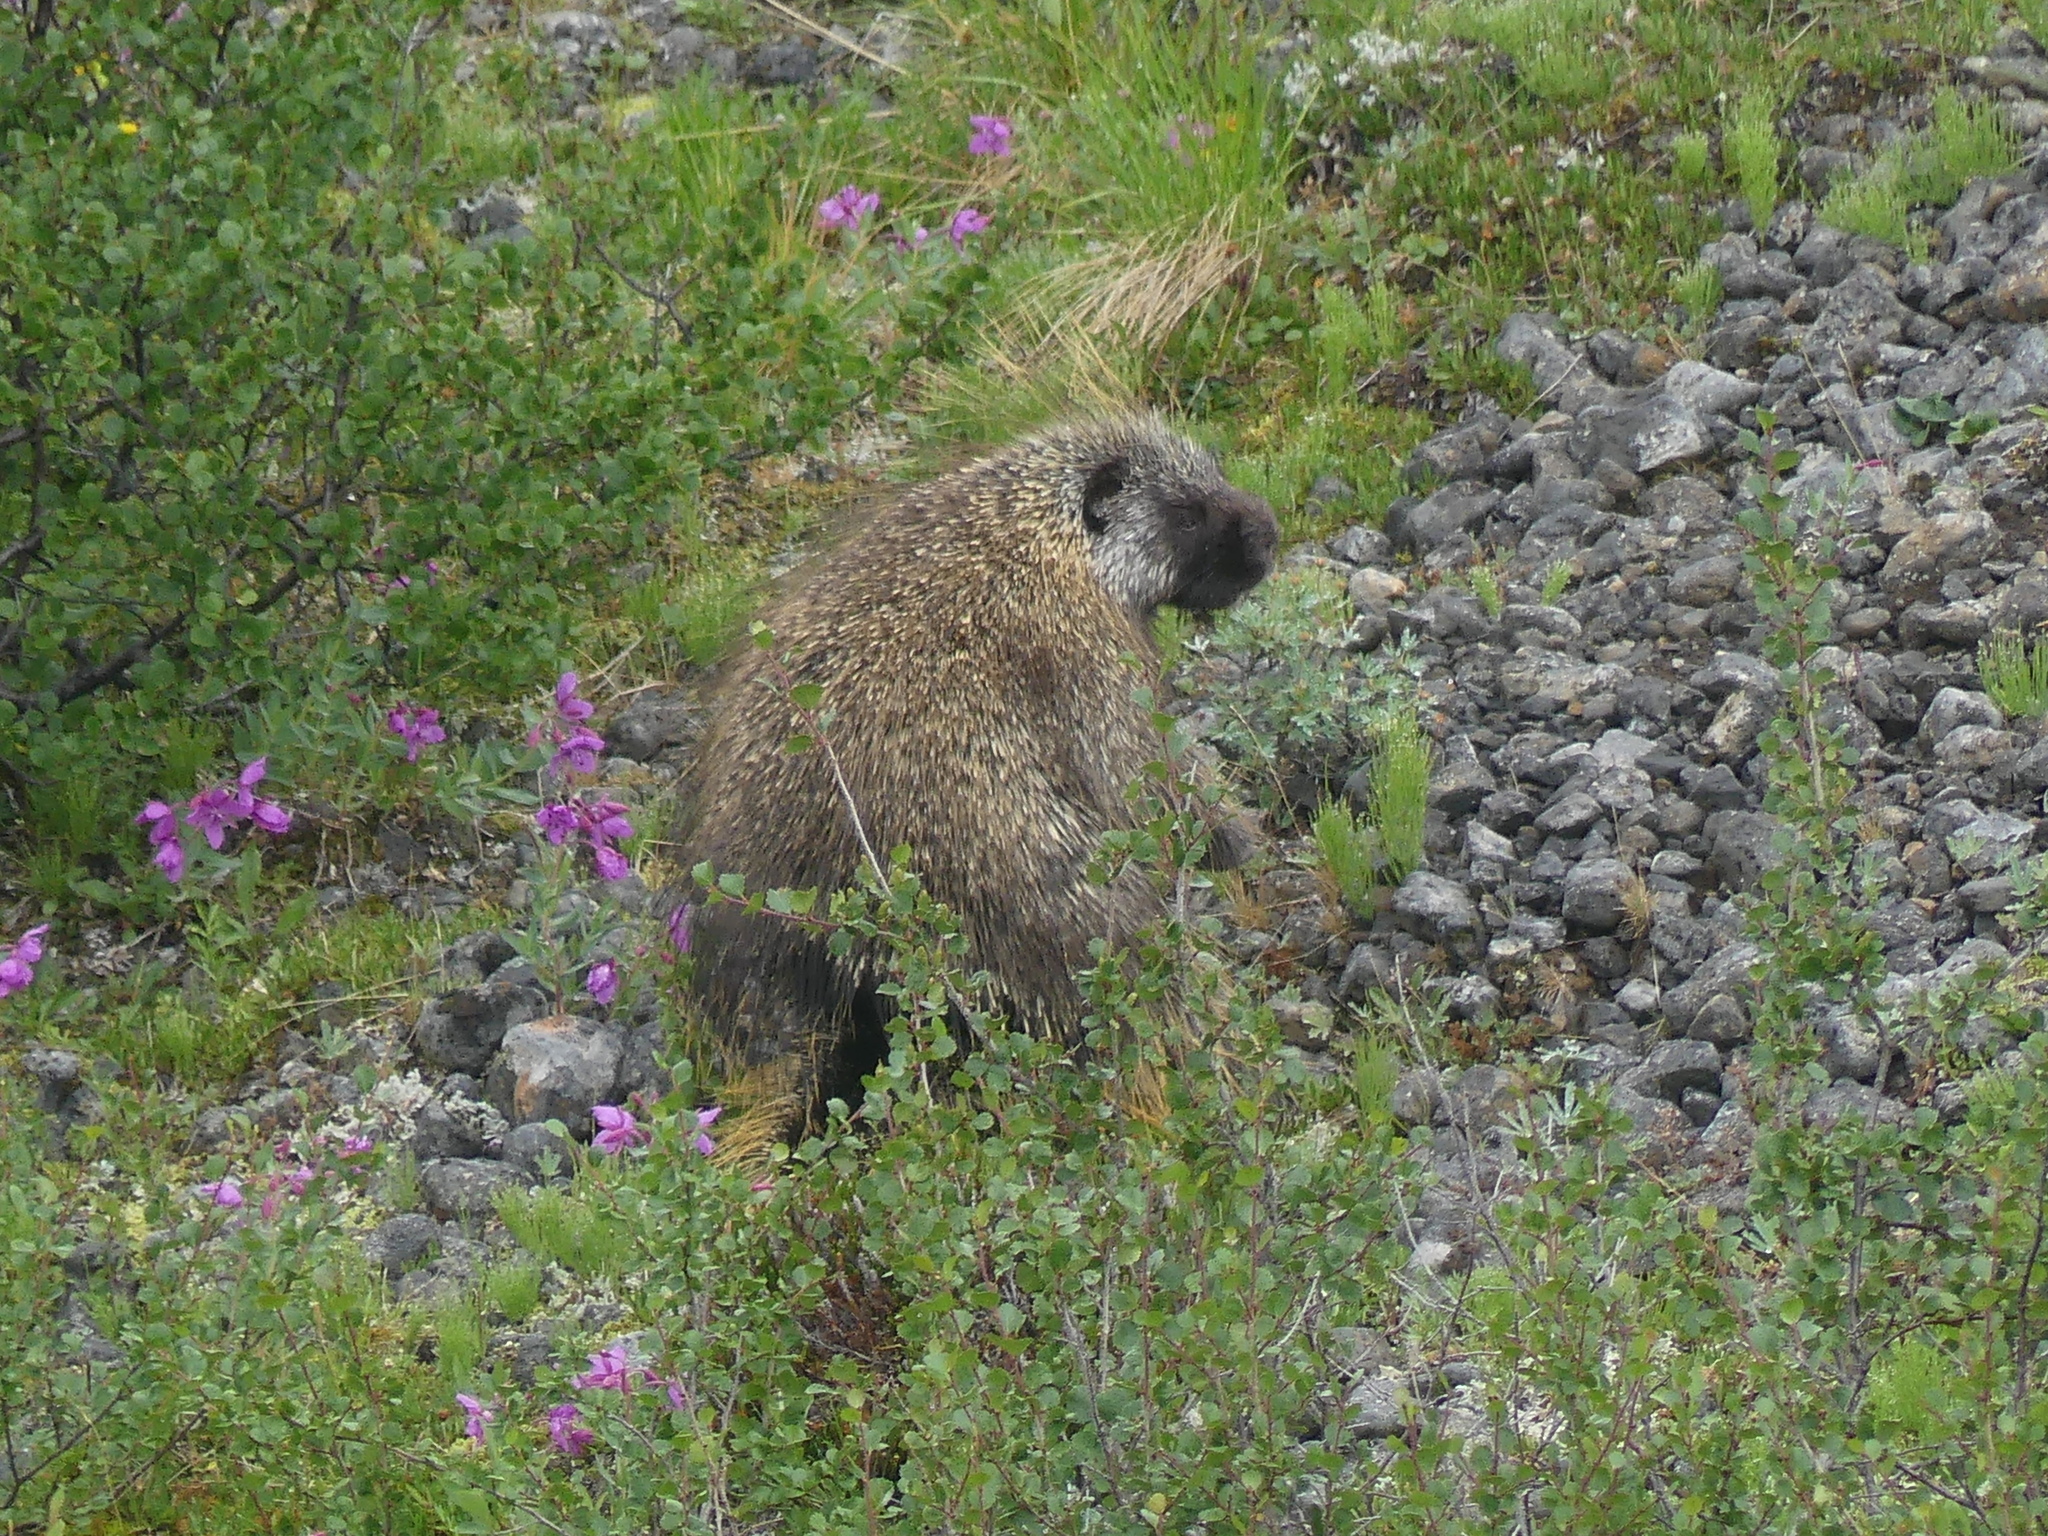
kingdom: Animalia
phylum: Chordata
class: Mammalia
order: Rodentia
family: Erethizontidae
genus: Erethizon
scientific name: Erethizon dorsatus
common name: North american porcupine
